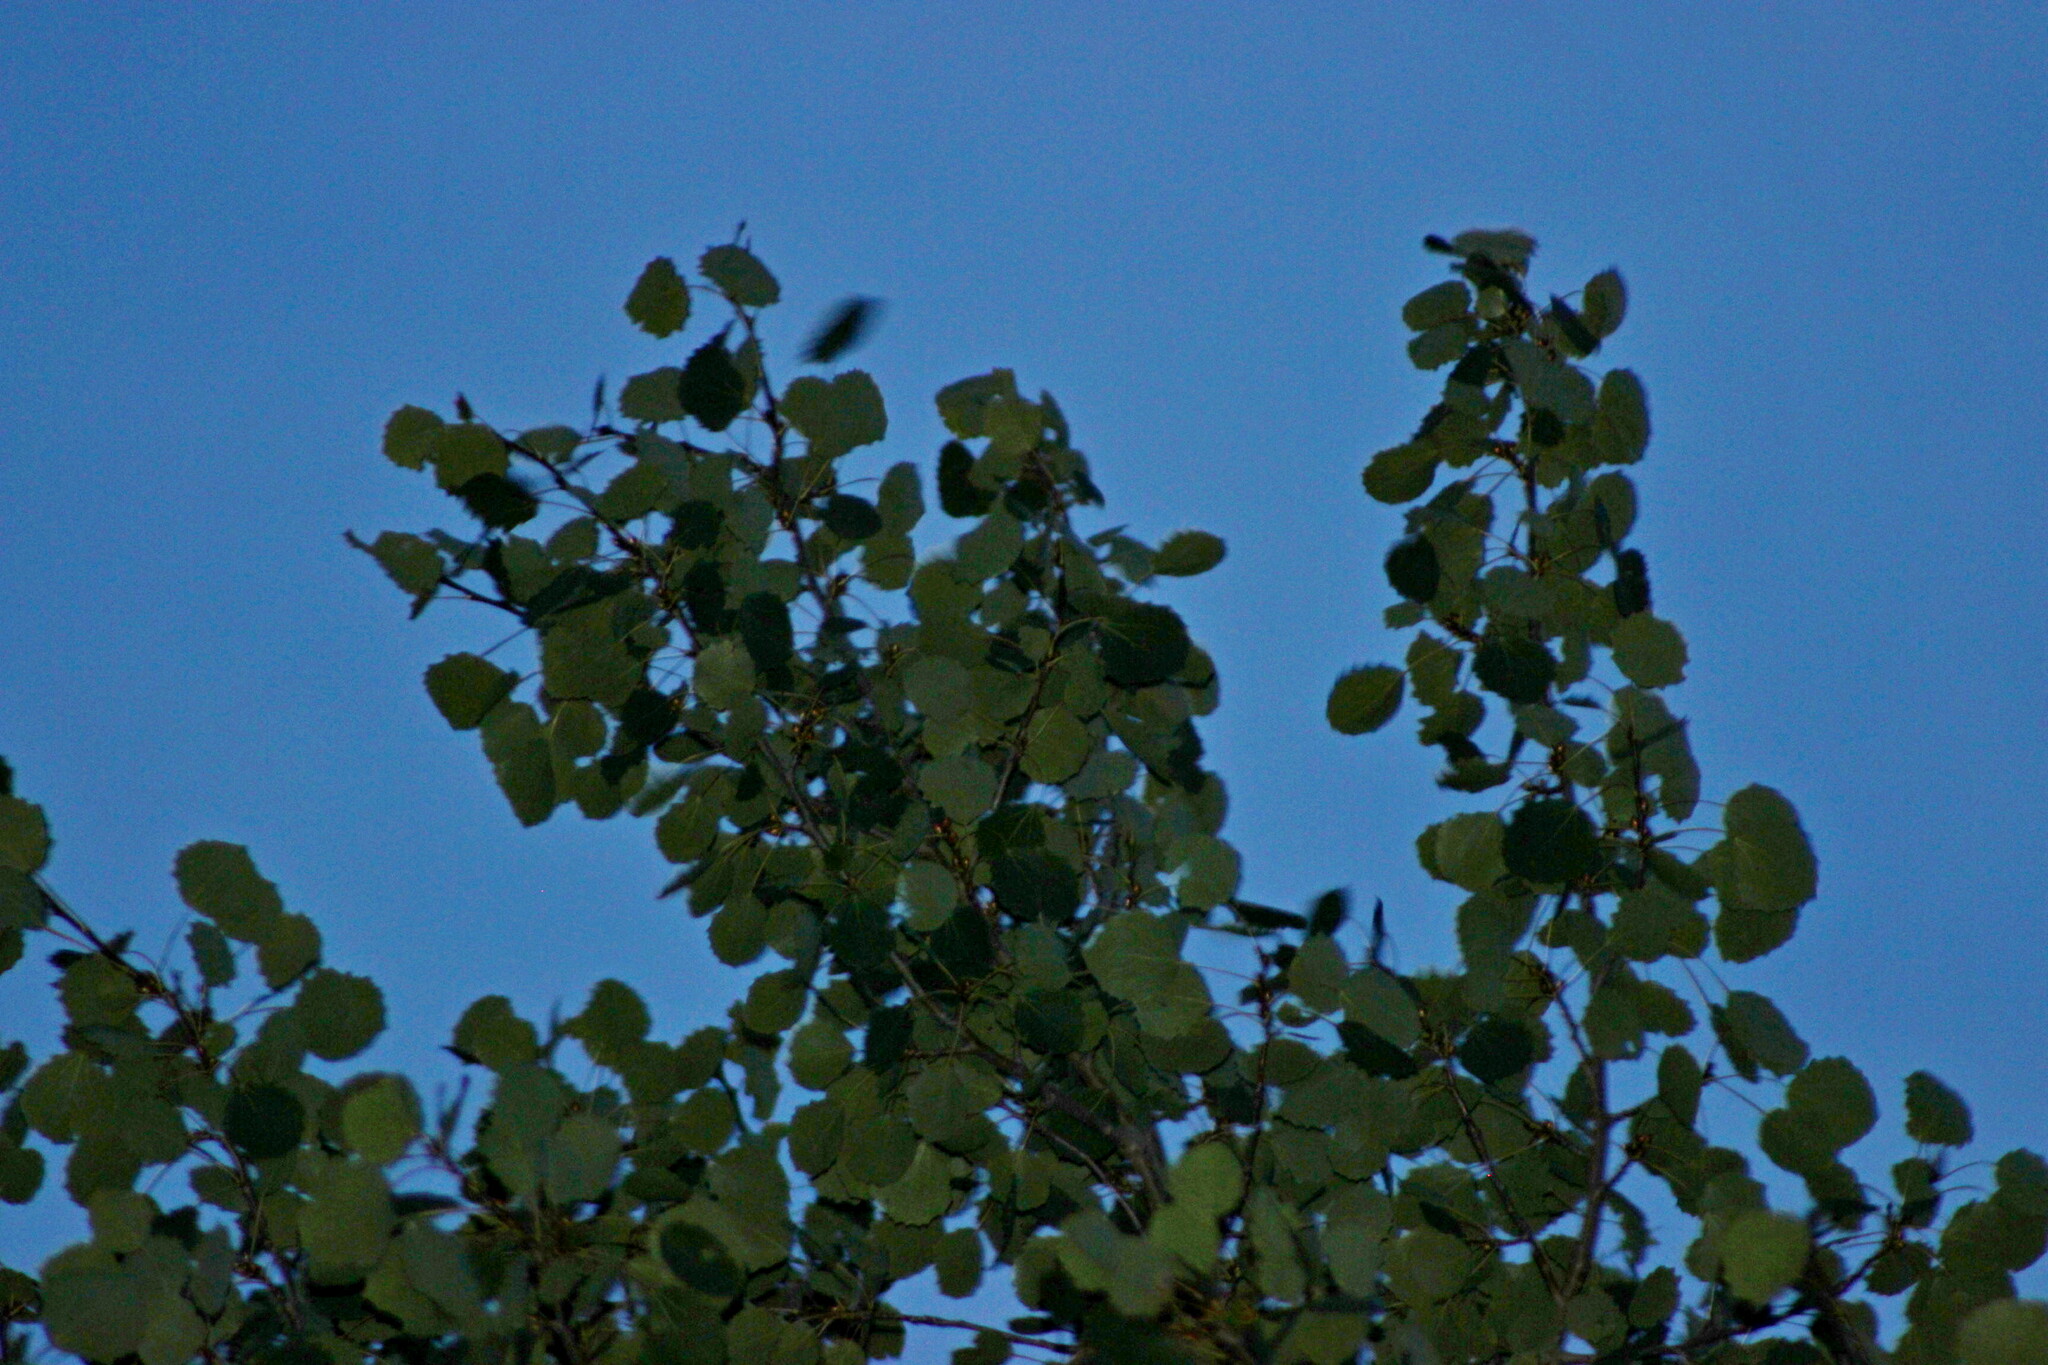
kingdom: Plantae
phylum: Tracheophyta
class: Magnoliopsida
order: Malpighiales
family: Salicaceae
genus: Populus
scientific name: Populus tremula
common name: European aspen
